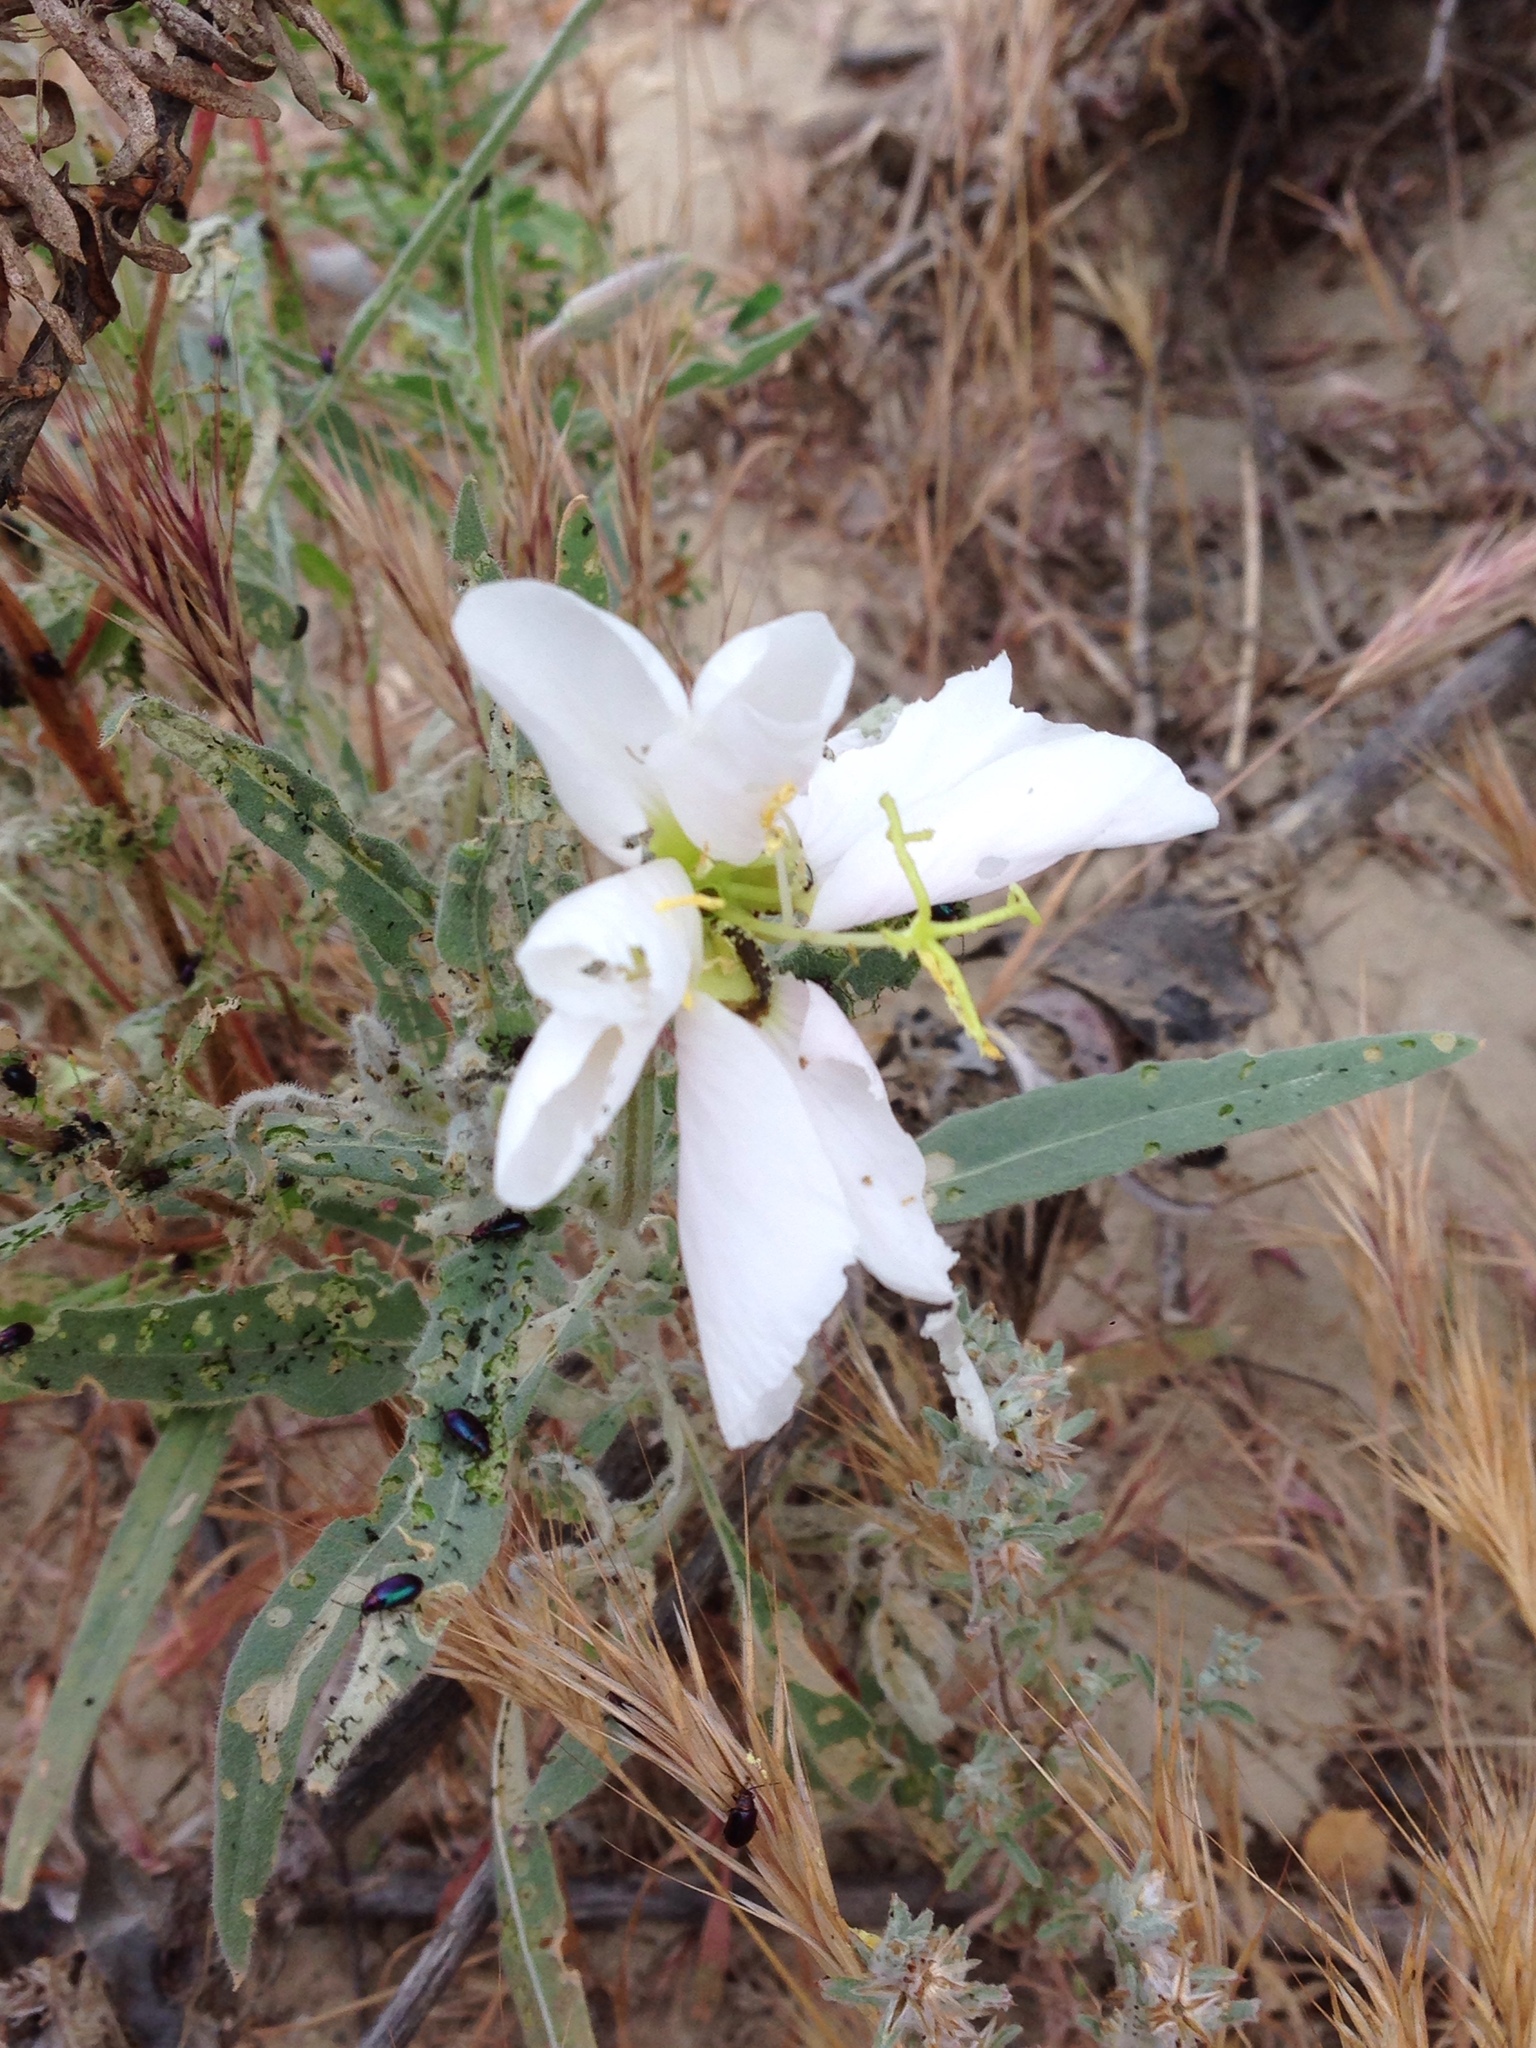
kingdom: Plantae
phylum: Tracheophyta
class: Magnoliopsida
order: Myrtales
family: Onagraceae
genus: Oenothera
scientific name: Oenothera californica
